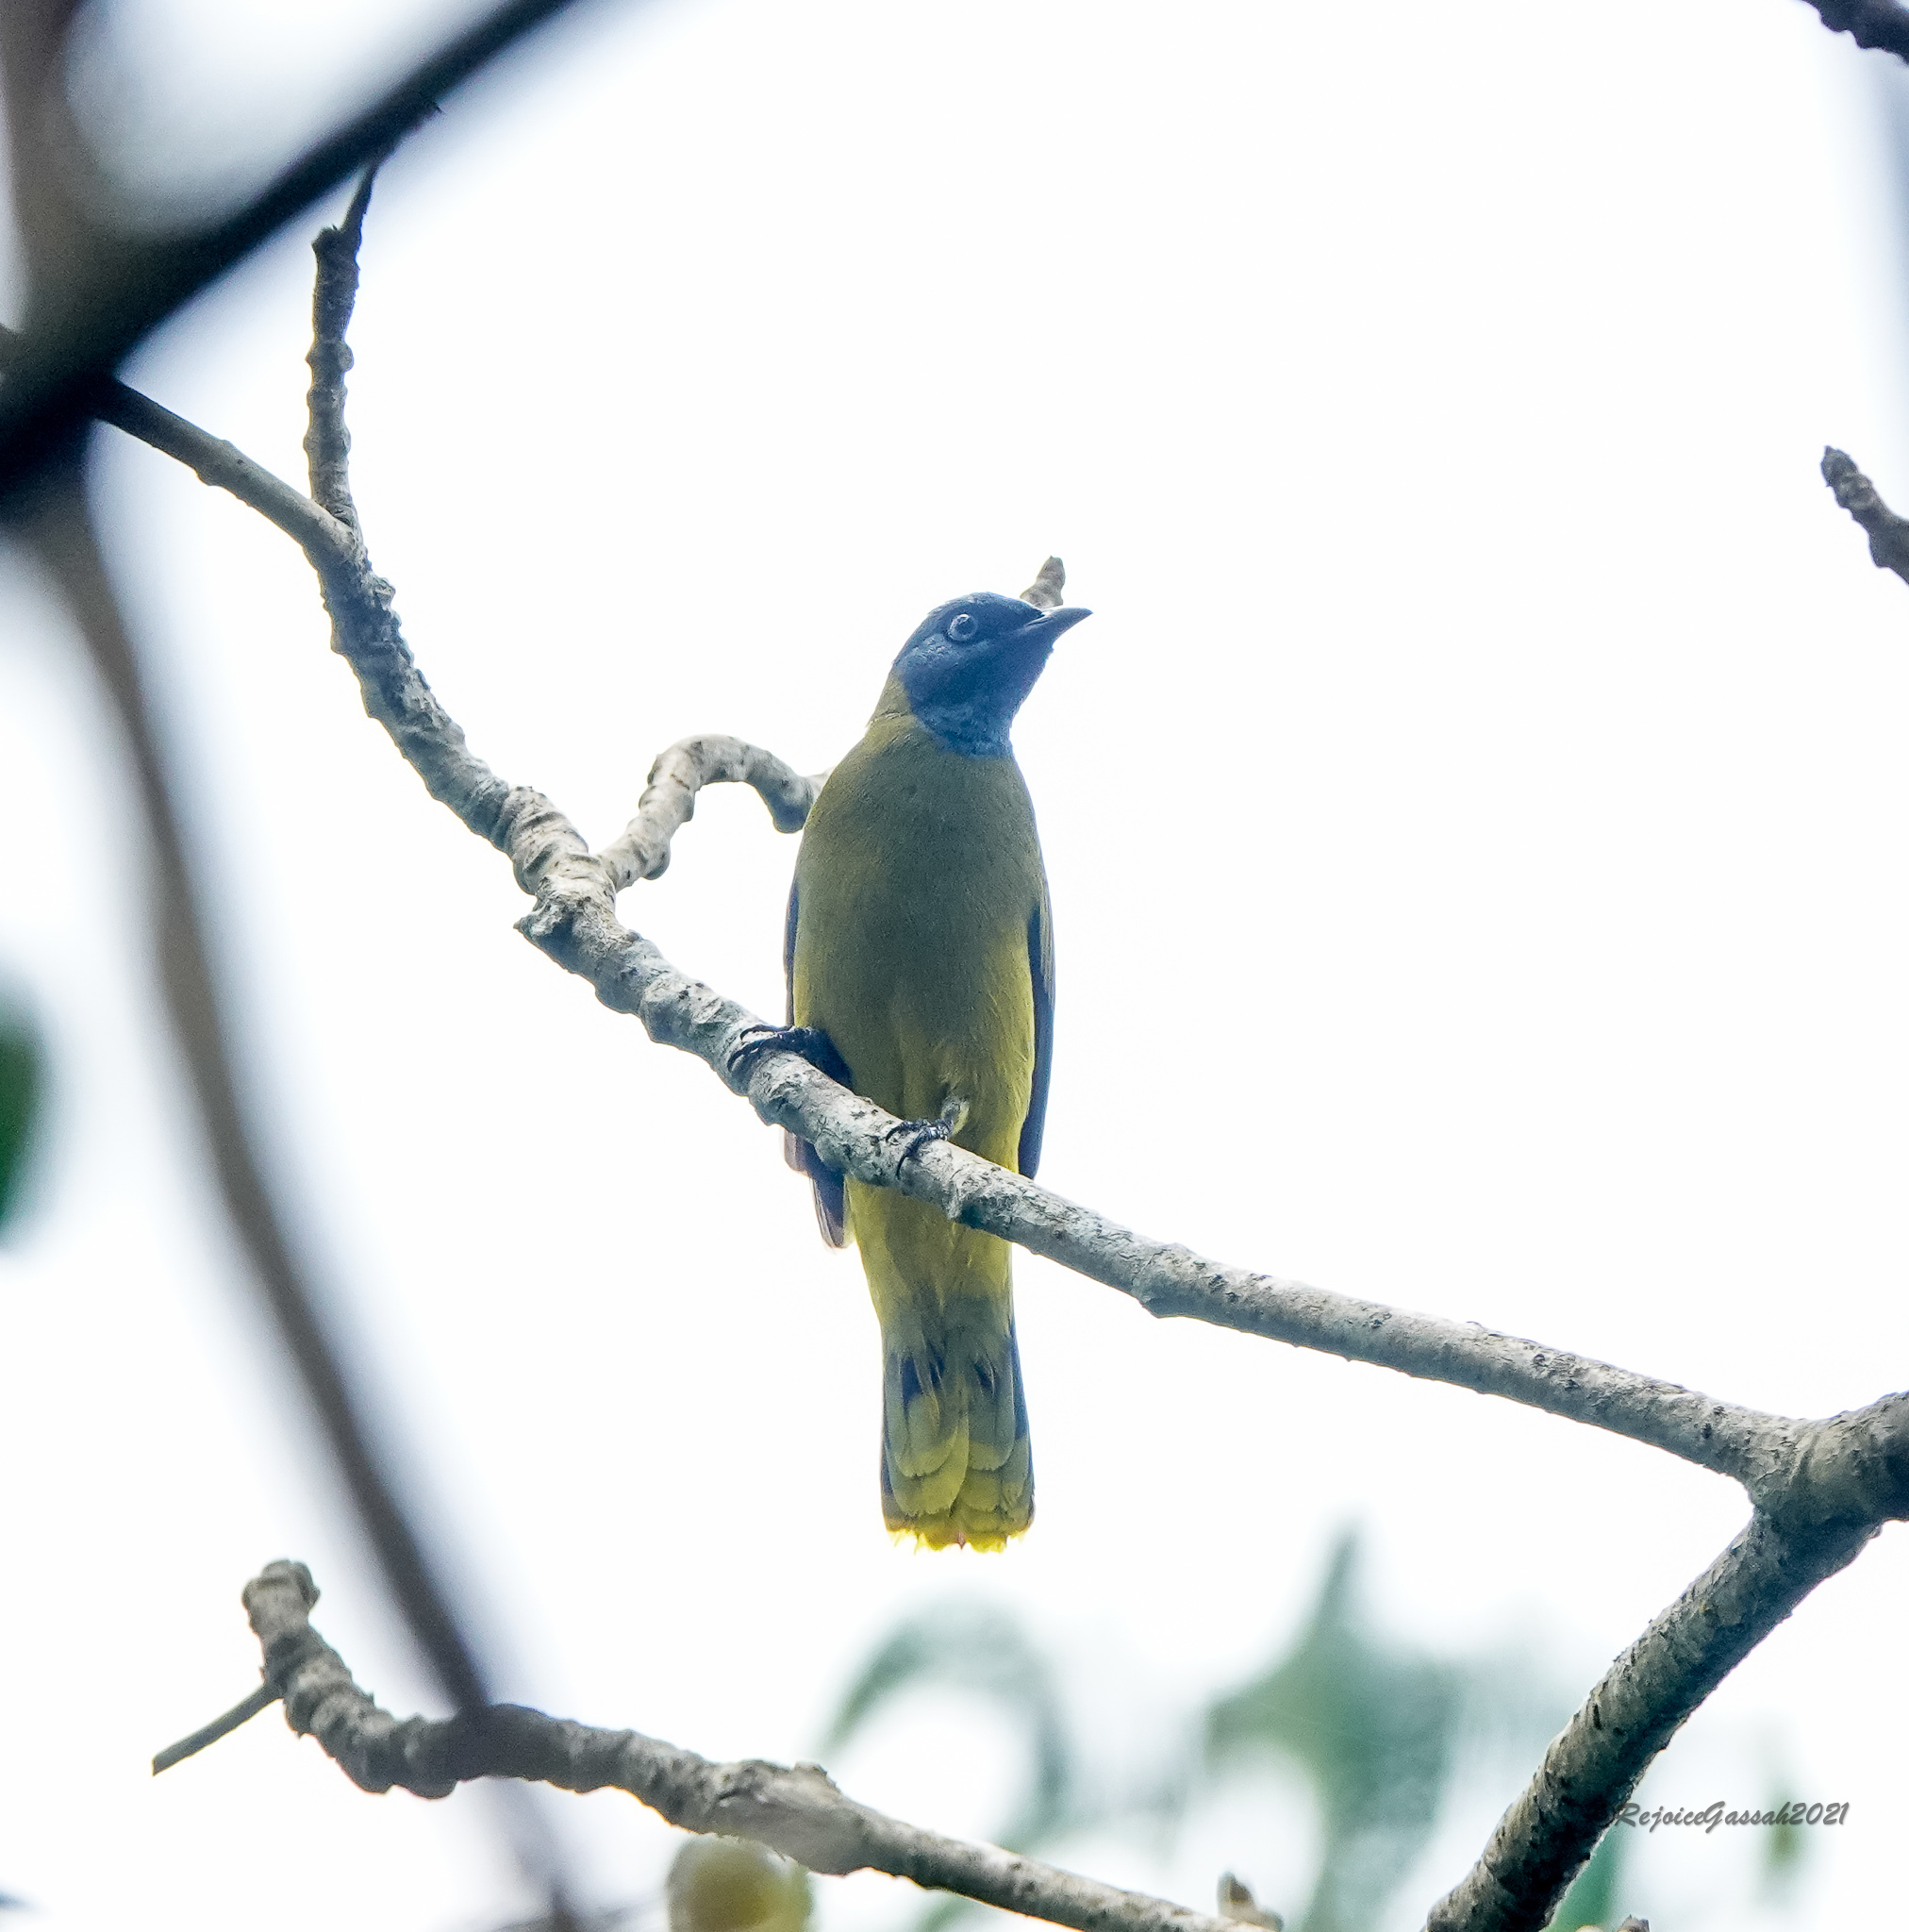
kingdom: Animalia
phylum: Chordata
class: Aves
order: Passeriformes
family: Pycnonotidae
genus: Microtarsus
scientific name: Microtarsus
